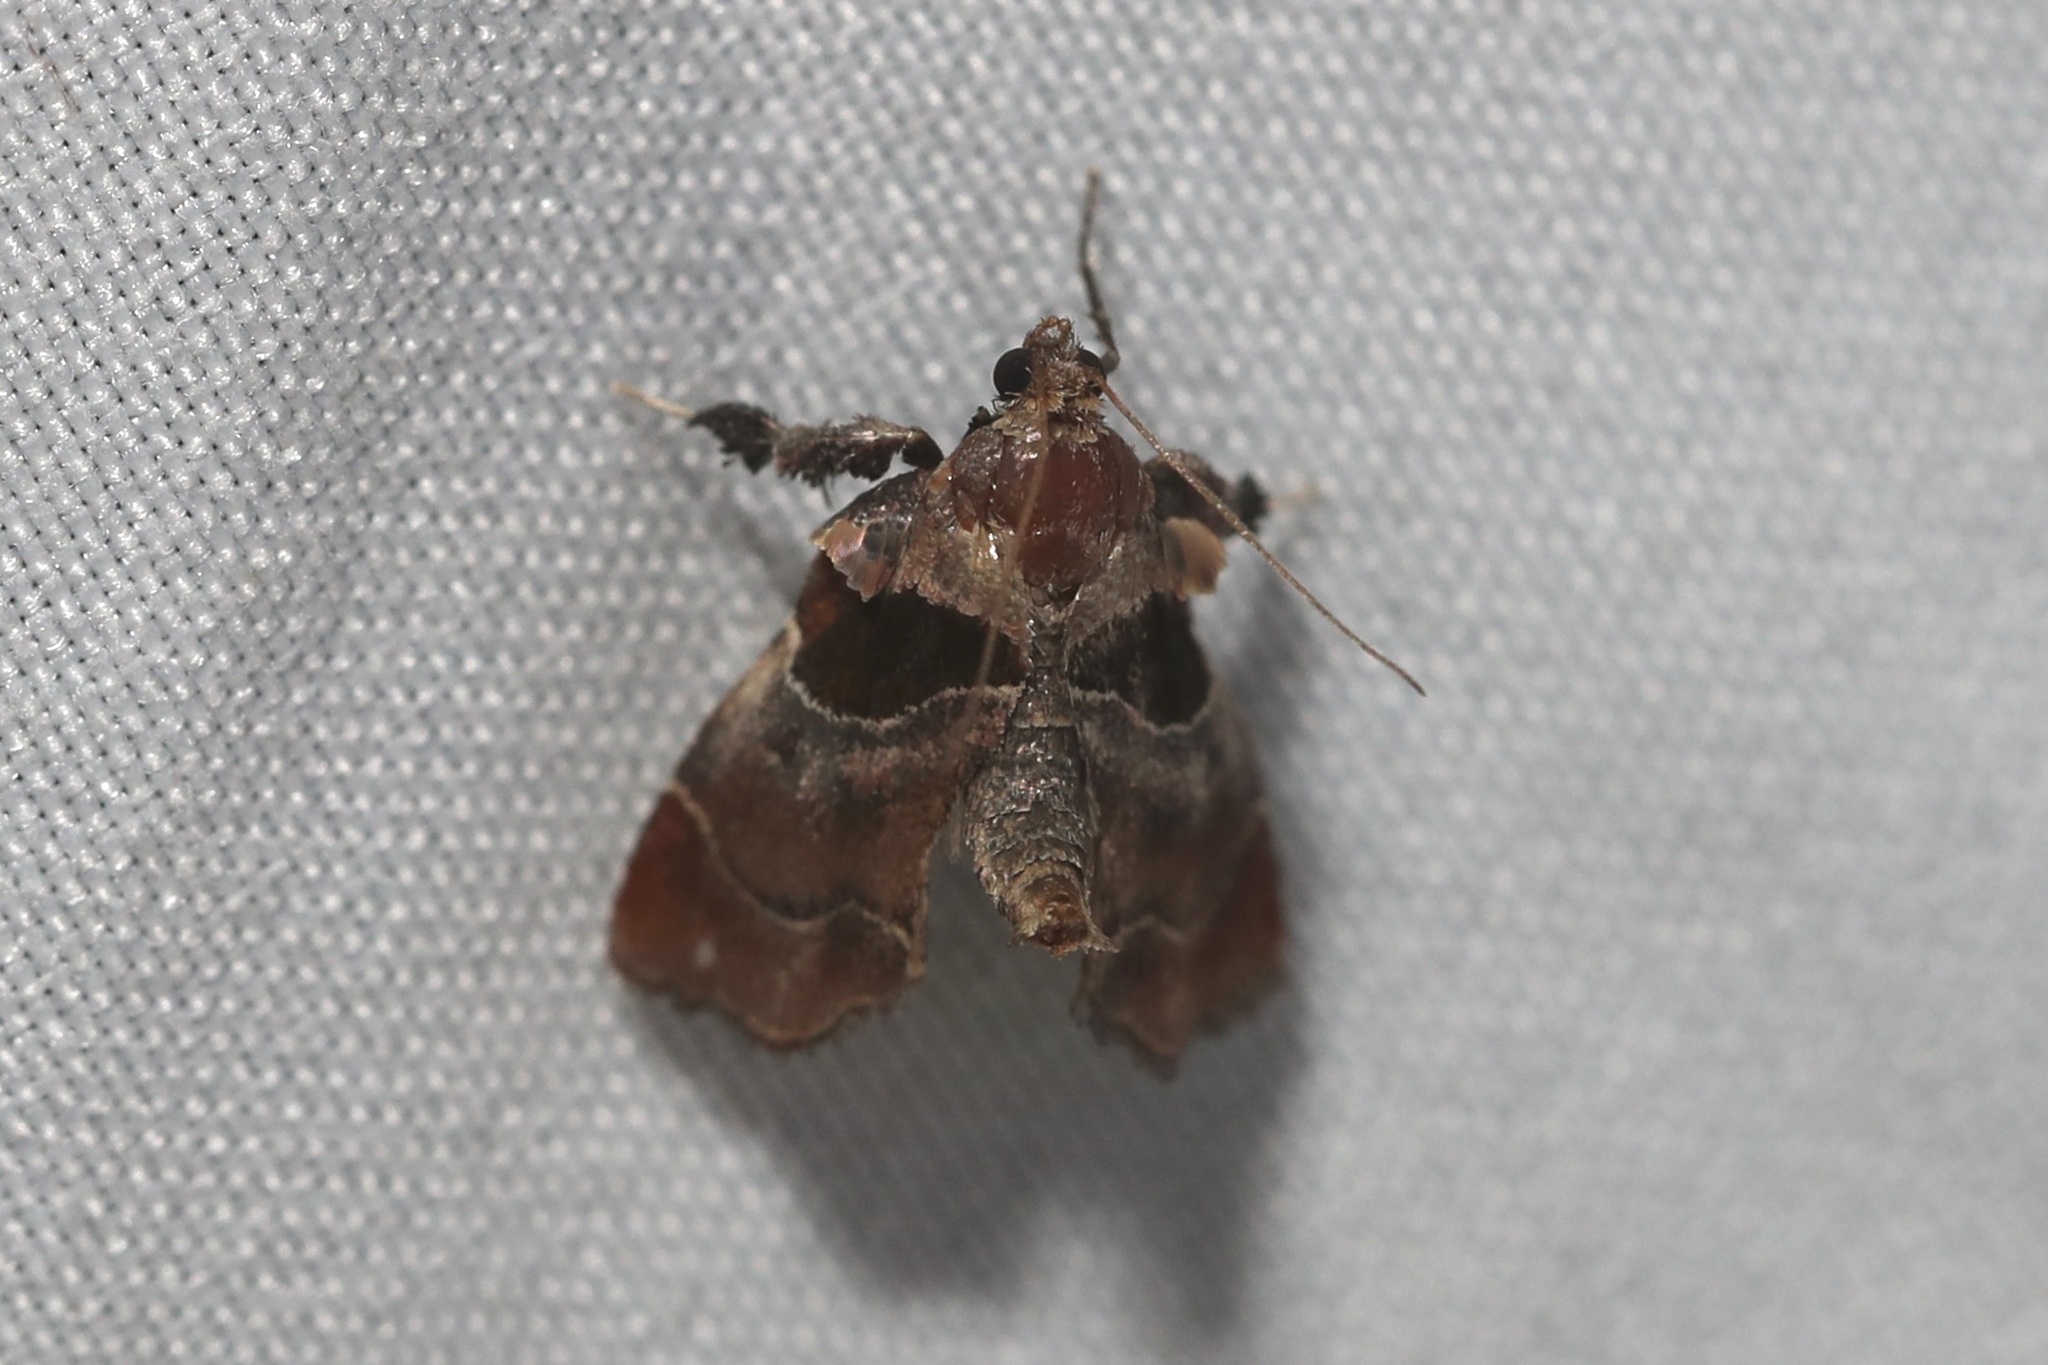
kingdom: Animalia
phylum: Arthropoda
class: Insecta
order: Lepidoptera
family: Pyralidae
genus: Tosale
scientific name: Tosale oviplagalis
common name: Dimorphic tosale moth
